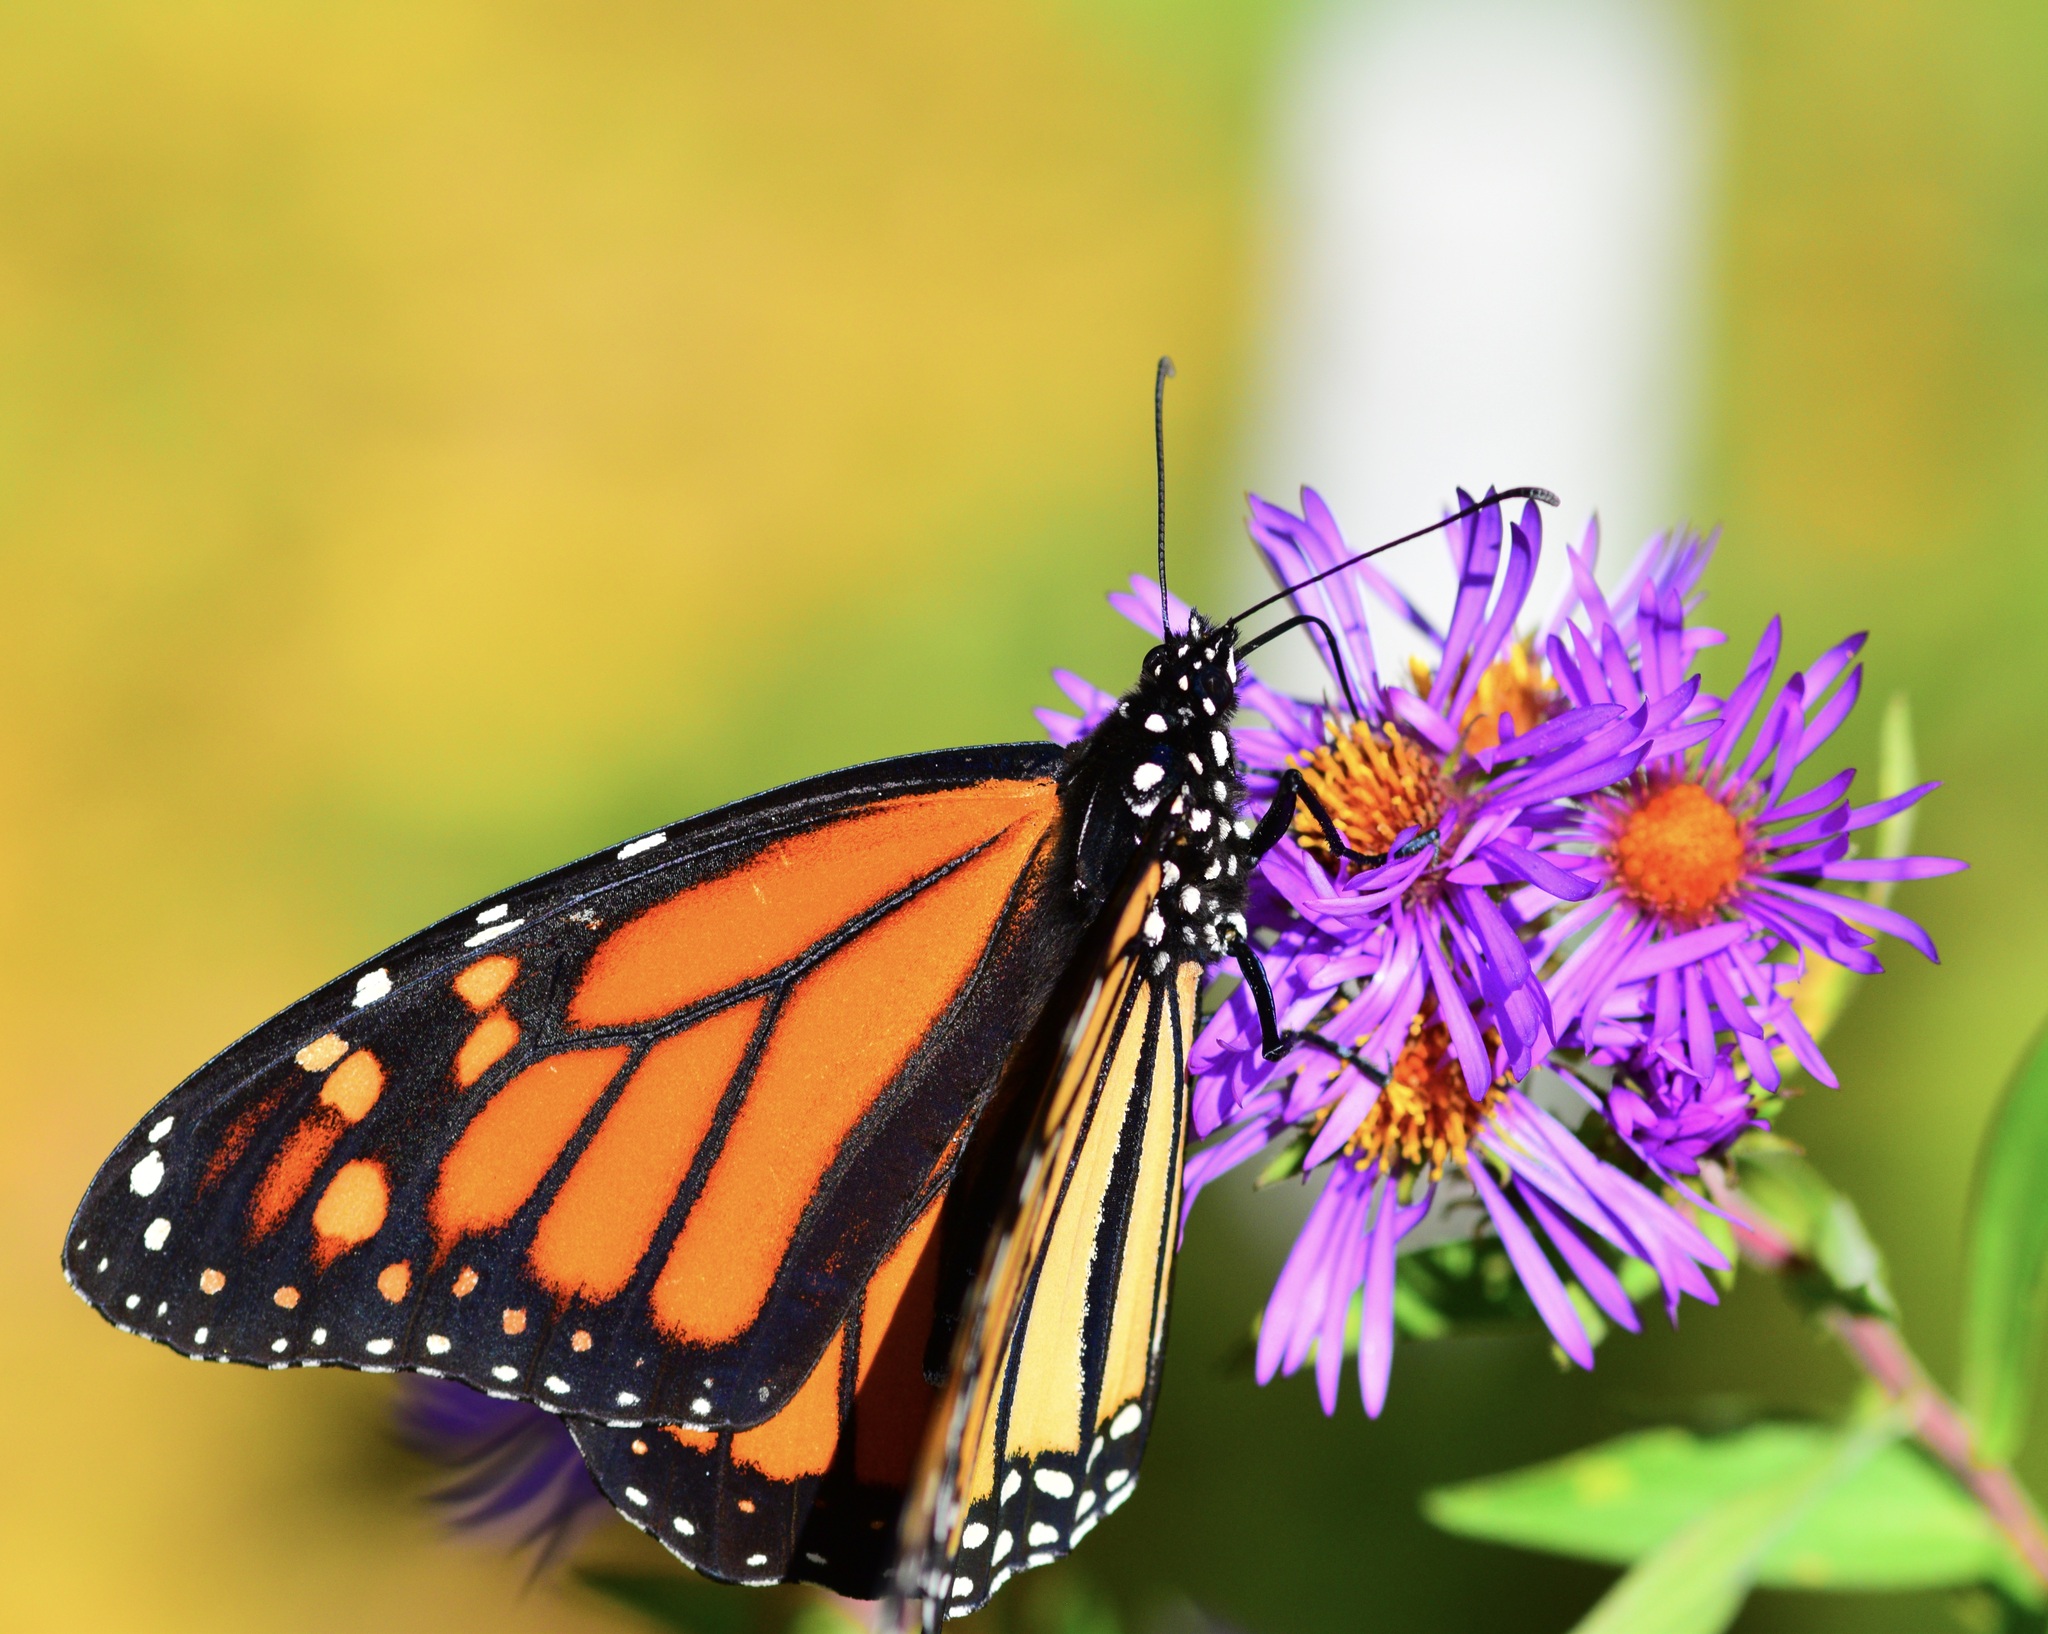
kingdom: Animalia
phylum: Arthropoda
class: Insecta
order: Lepidoptera
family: Nymphalidae
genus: Danaus
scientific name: Danaus plexippus
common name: Monarch
